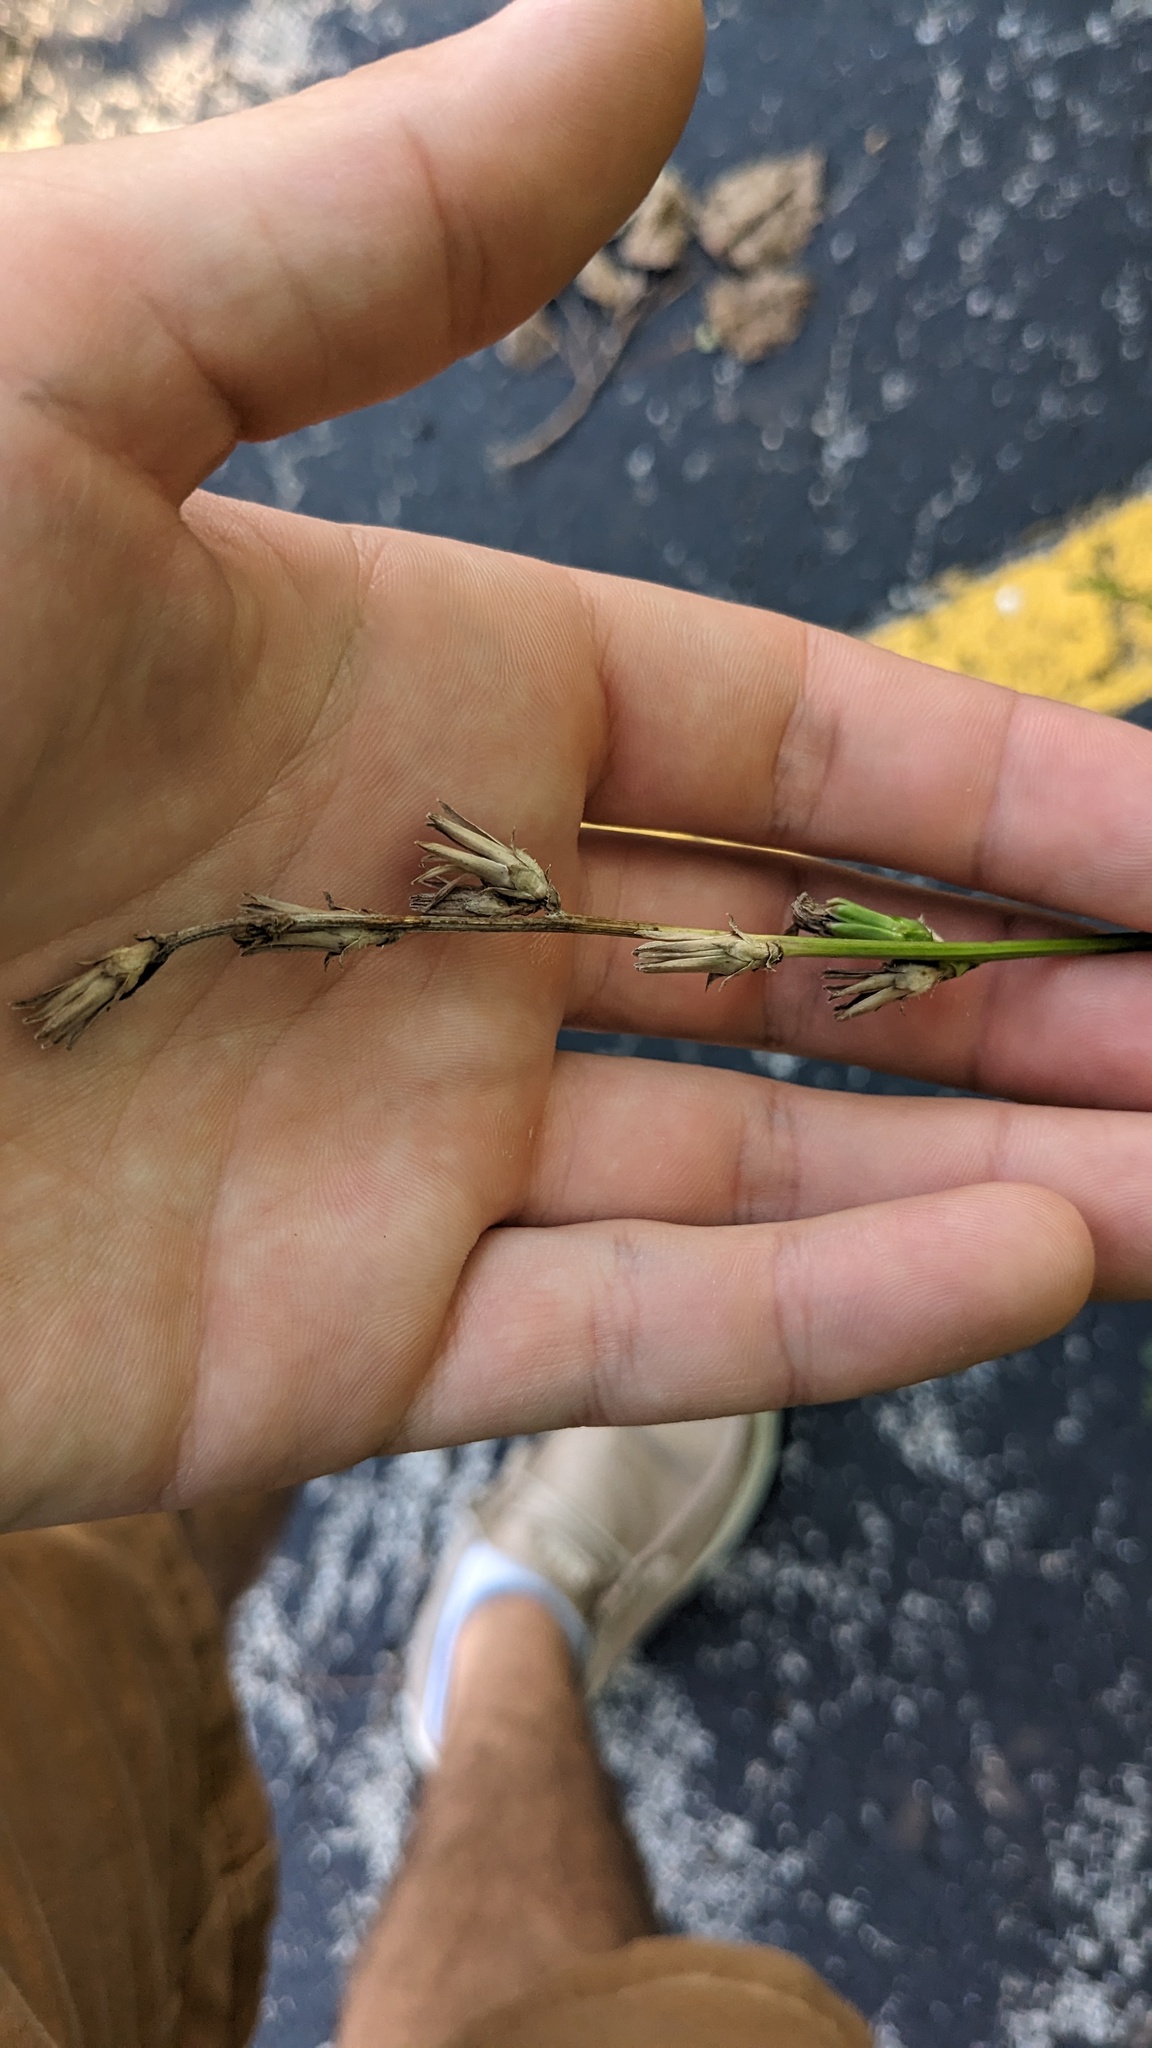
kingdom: Plantae
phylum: Tracheophyta
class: Magnoliopsida
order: Asterales
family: Asteraceae
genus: Cichorium
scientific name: Cichorium intybus
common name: Chicory
